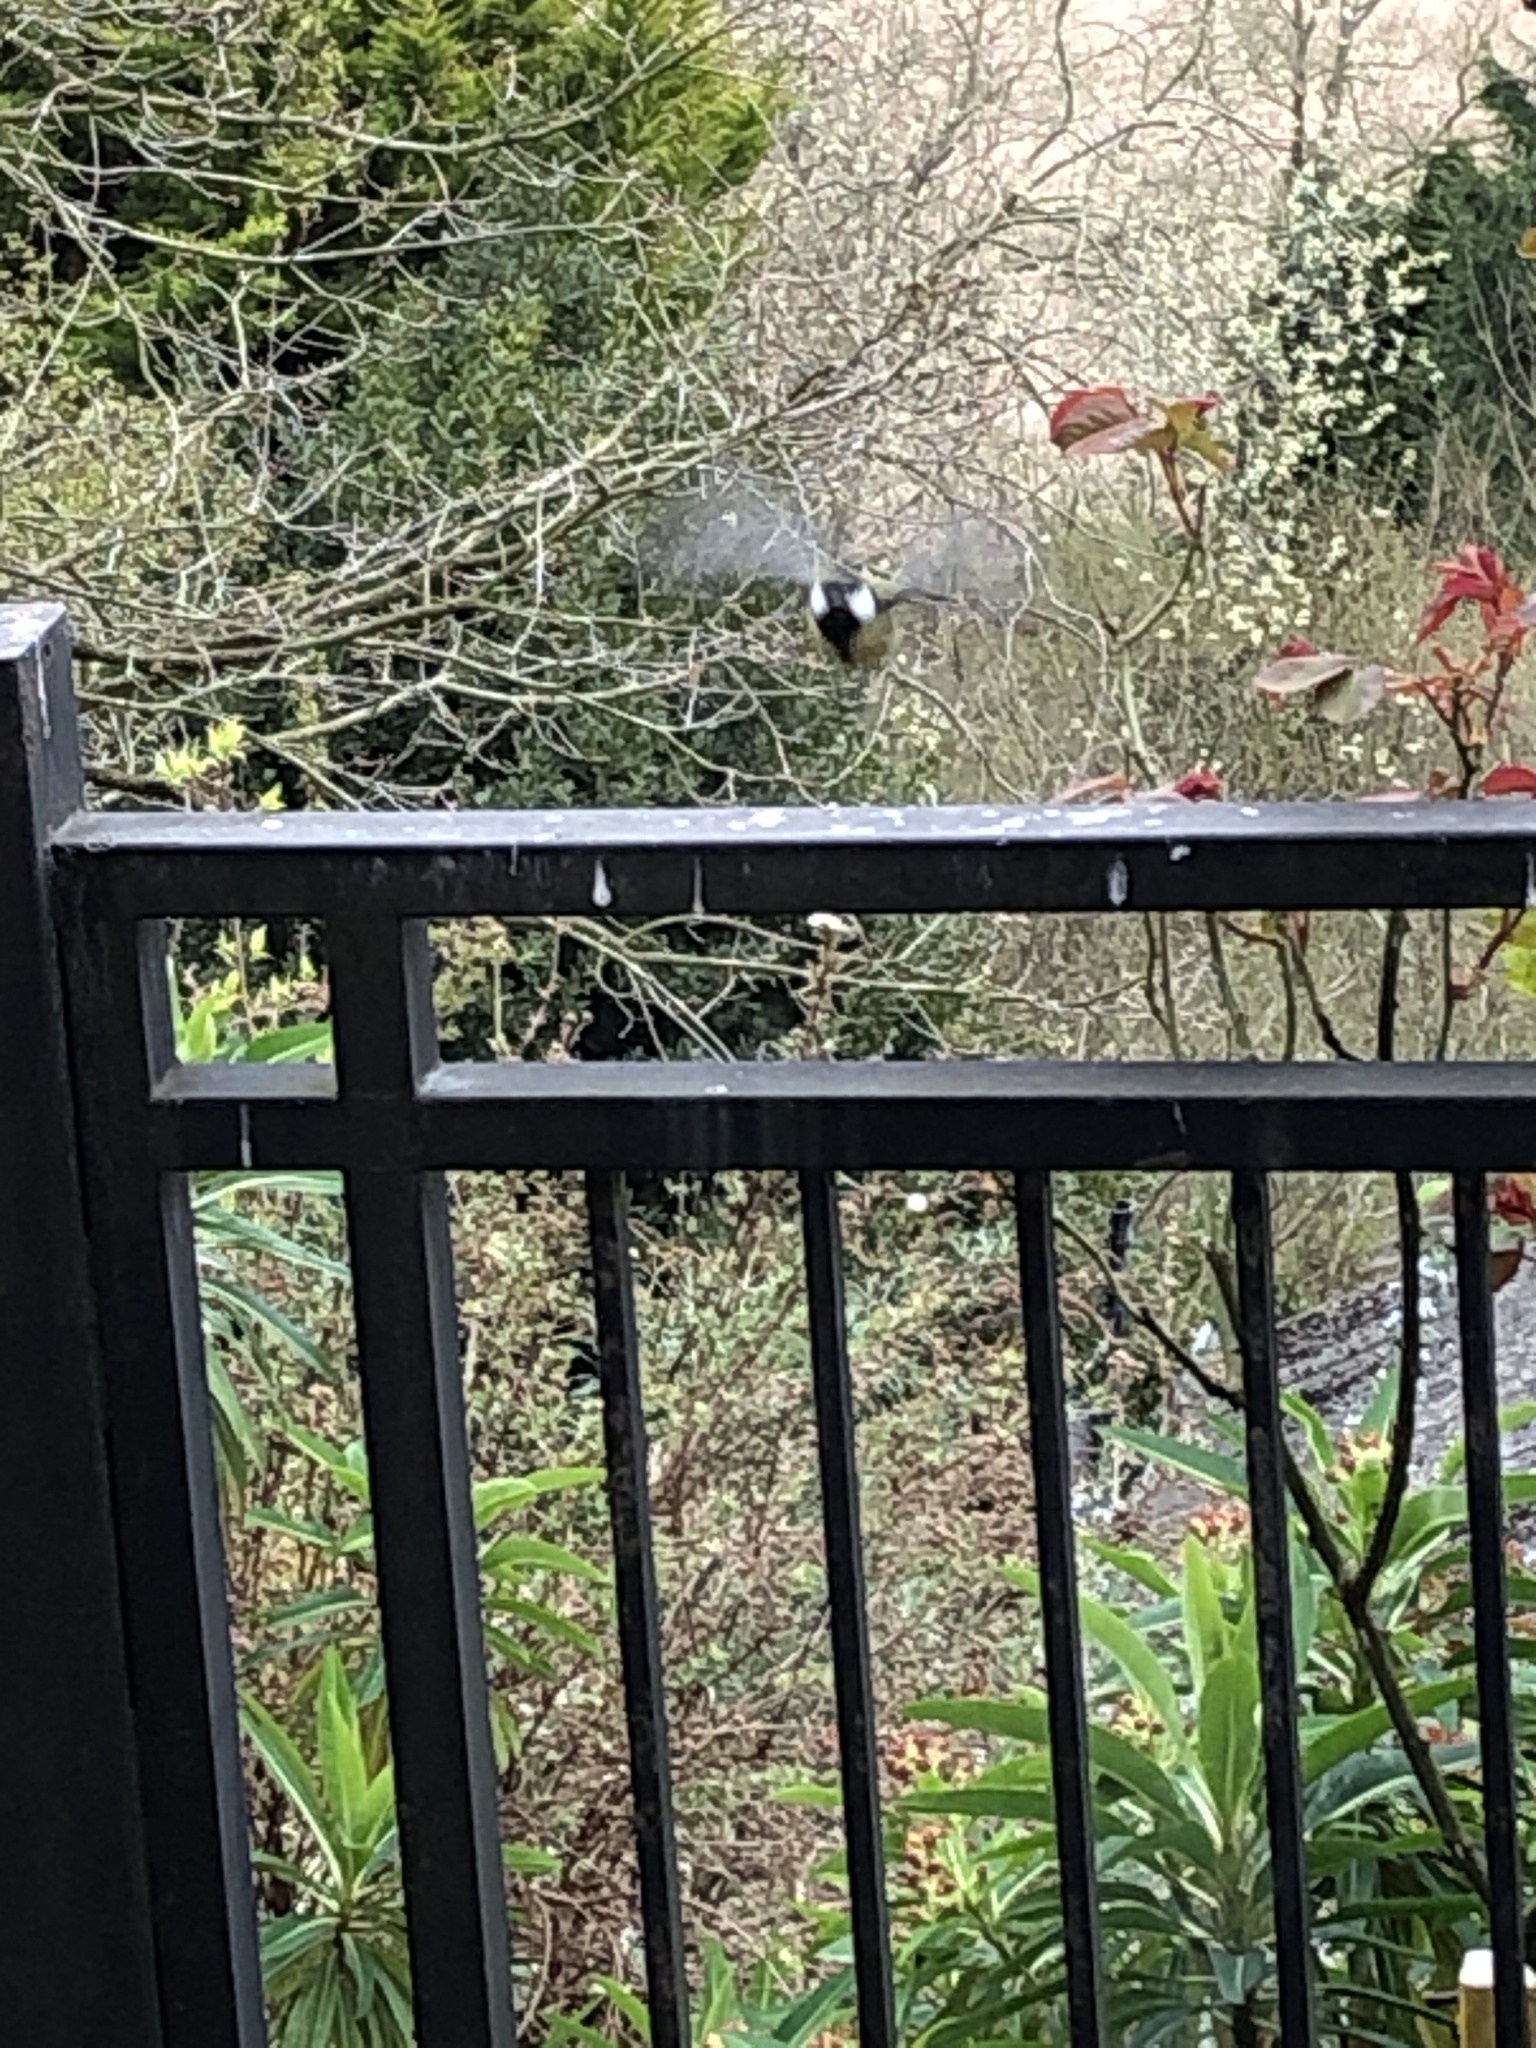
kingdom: Animalia
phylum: Chordata
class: Aves
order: Passeriformes
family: Paridae
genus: Parus
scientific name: Parus major
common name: Great tit
